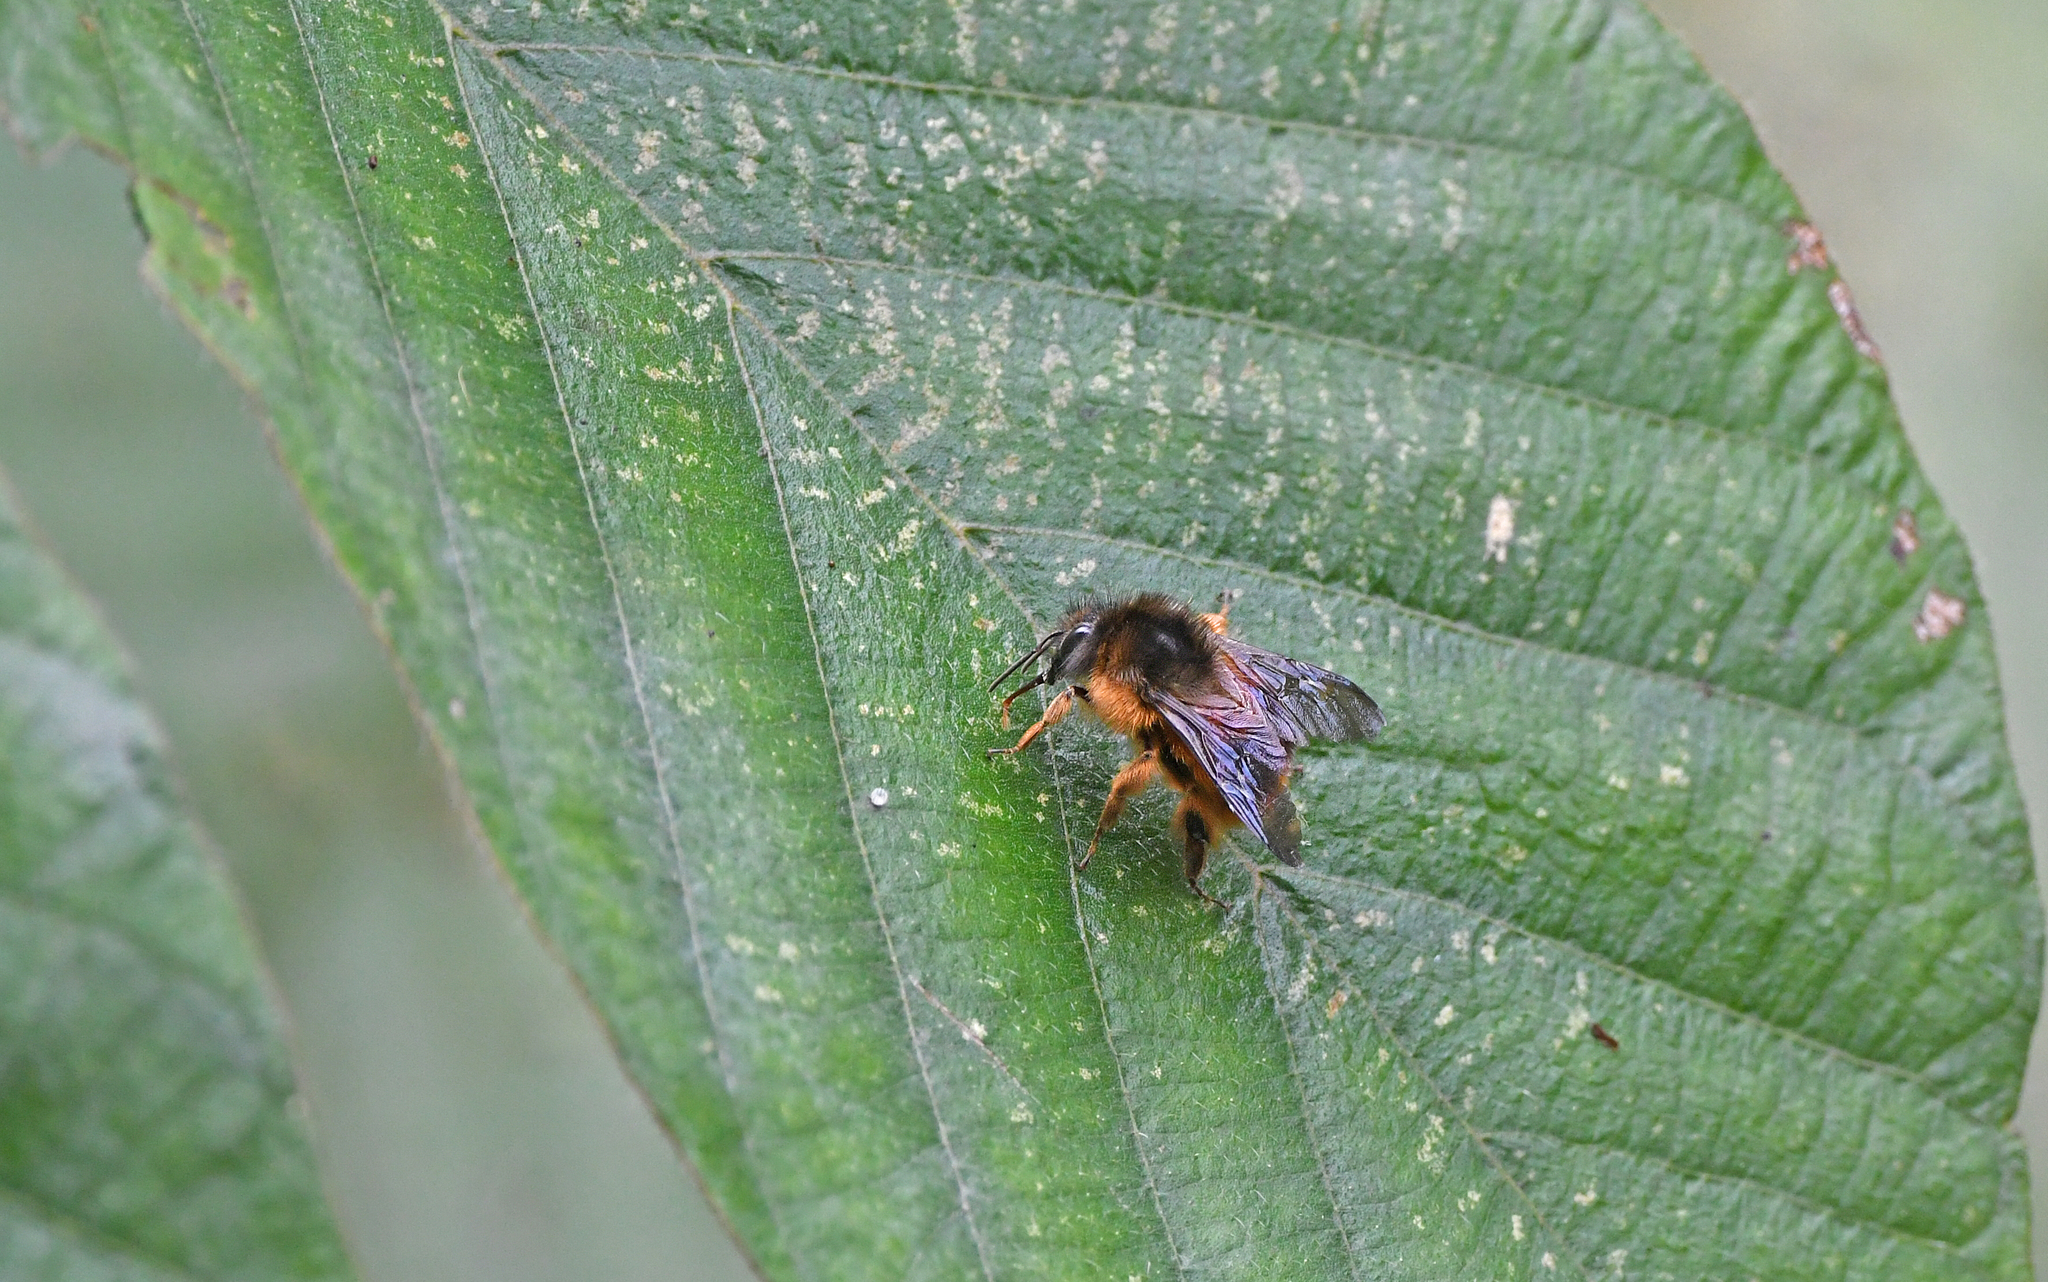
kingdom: Animalia
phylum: Arthropoda
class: Insecta
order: Hymenoptera
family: Apidae
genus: Bombus
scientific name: Bombus handlirschi
